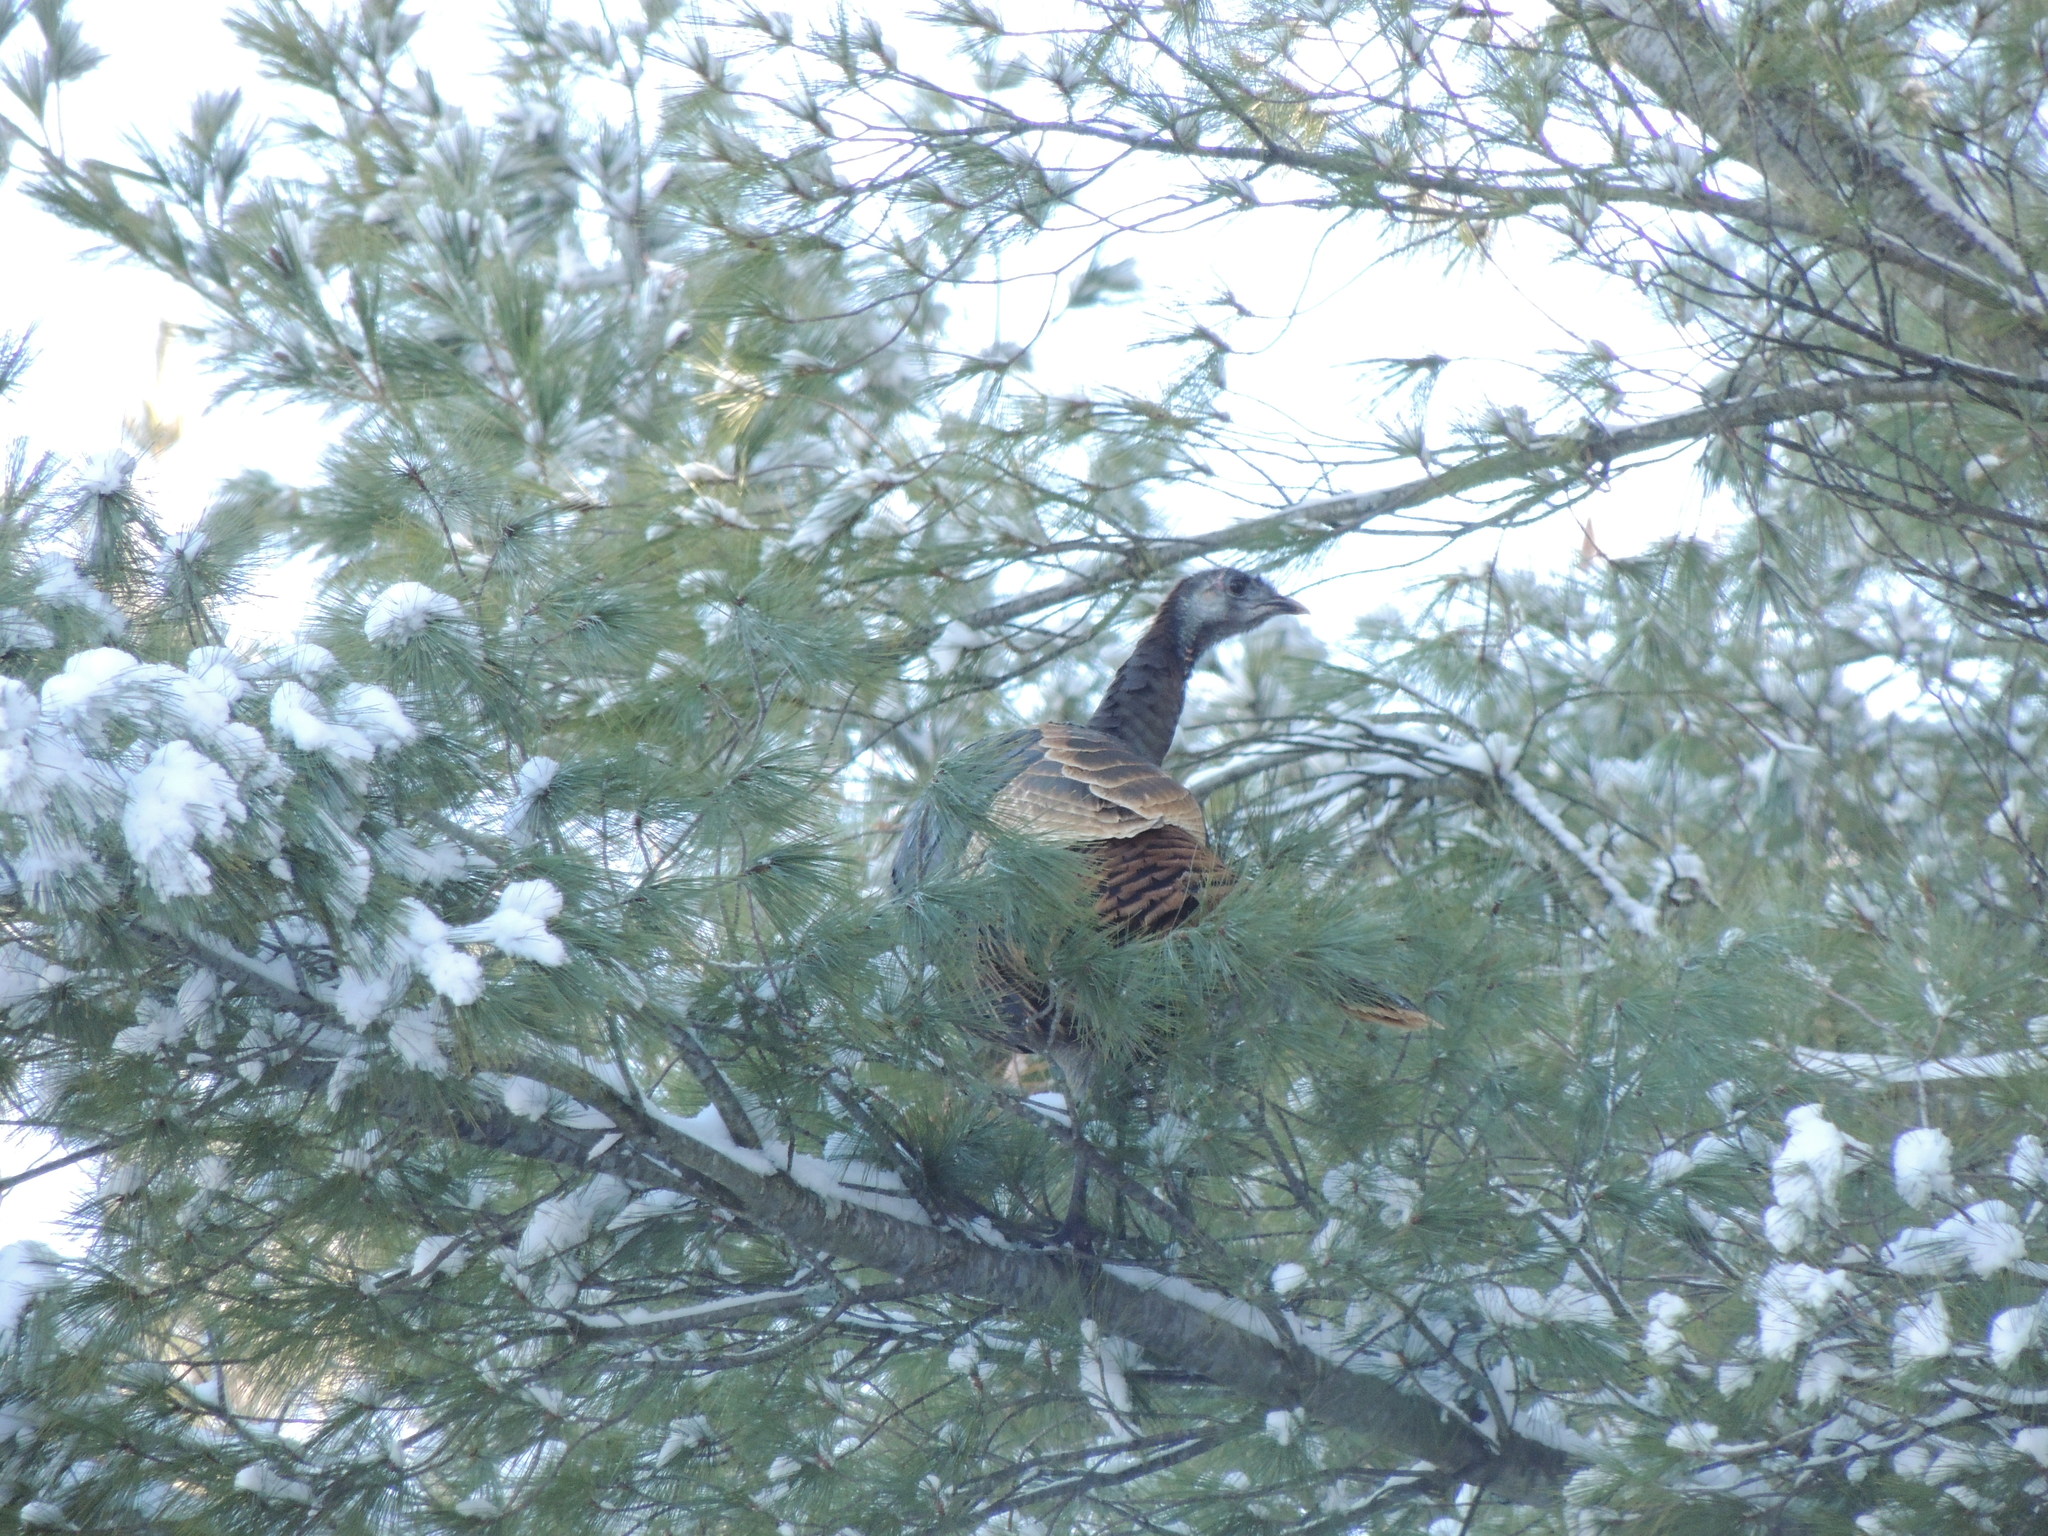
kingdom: Animalia
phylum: Chordata
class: Aves
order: Galliformes
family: Phasianidae
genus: Meleagris
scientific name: Meleagris gallopavo
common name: Wild turkey
